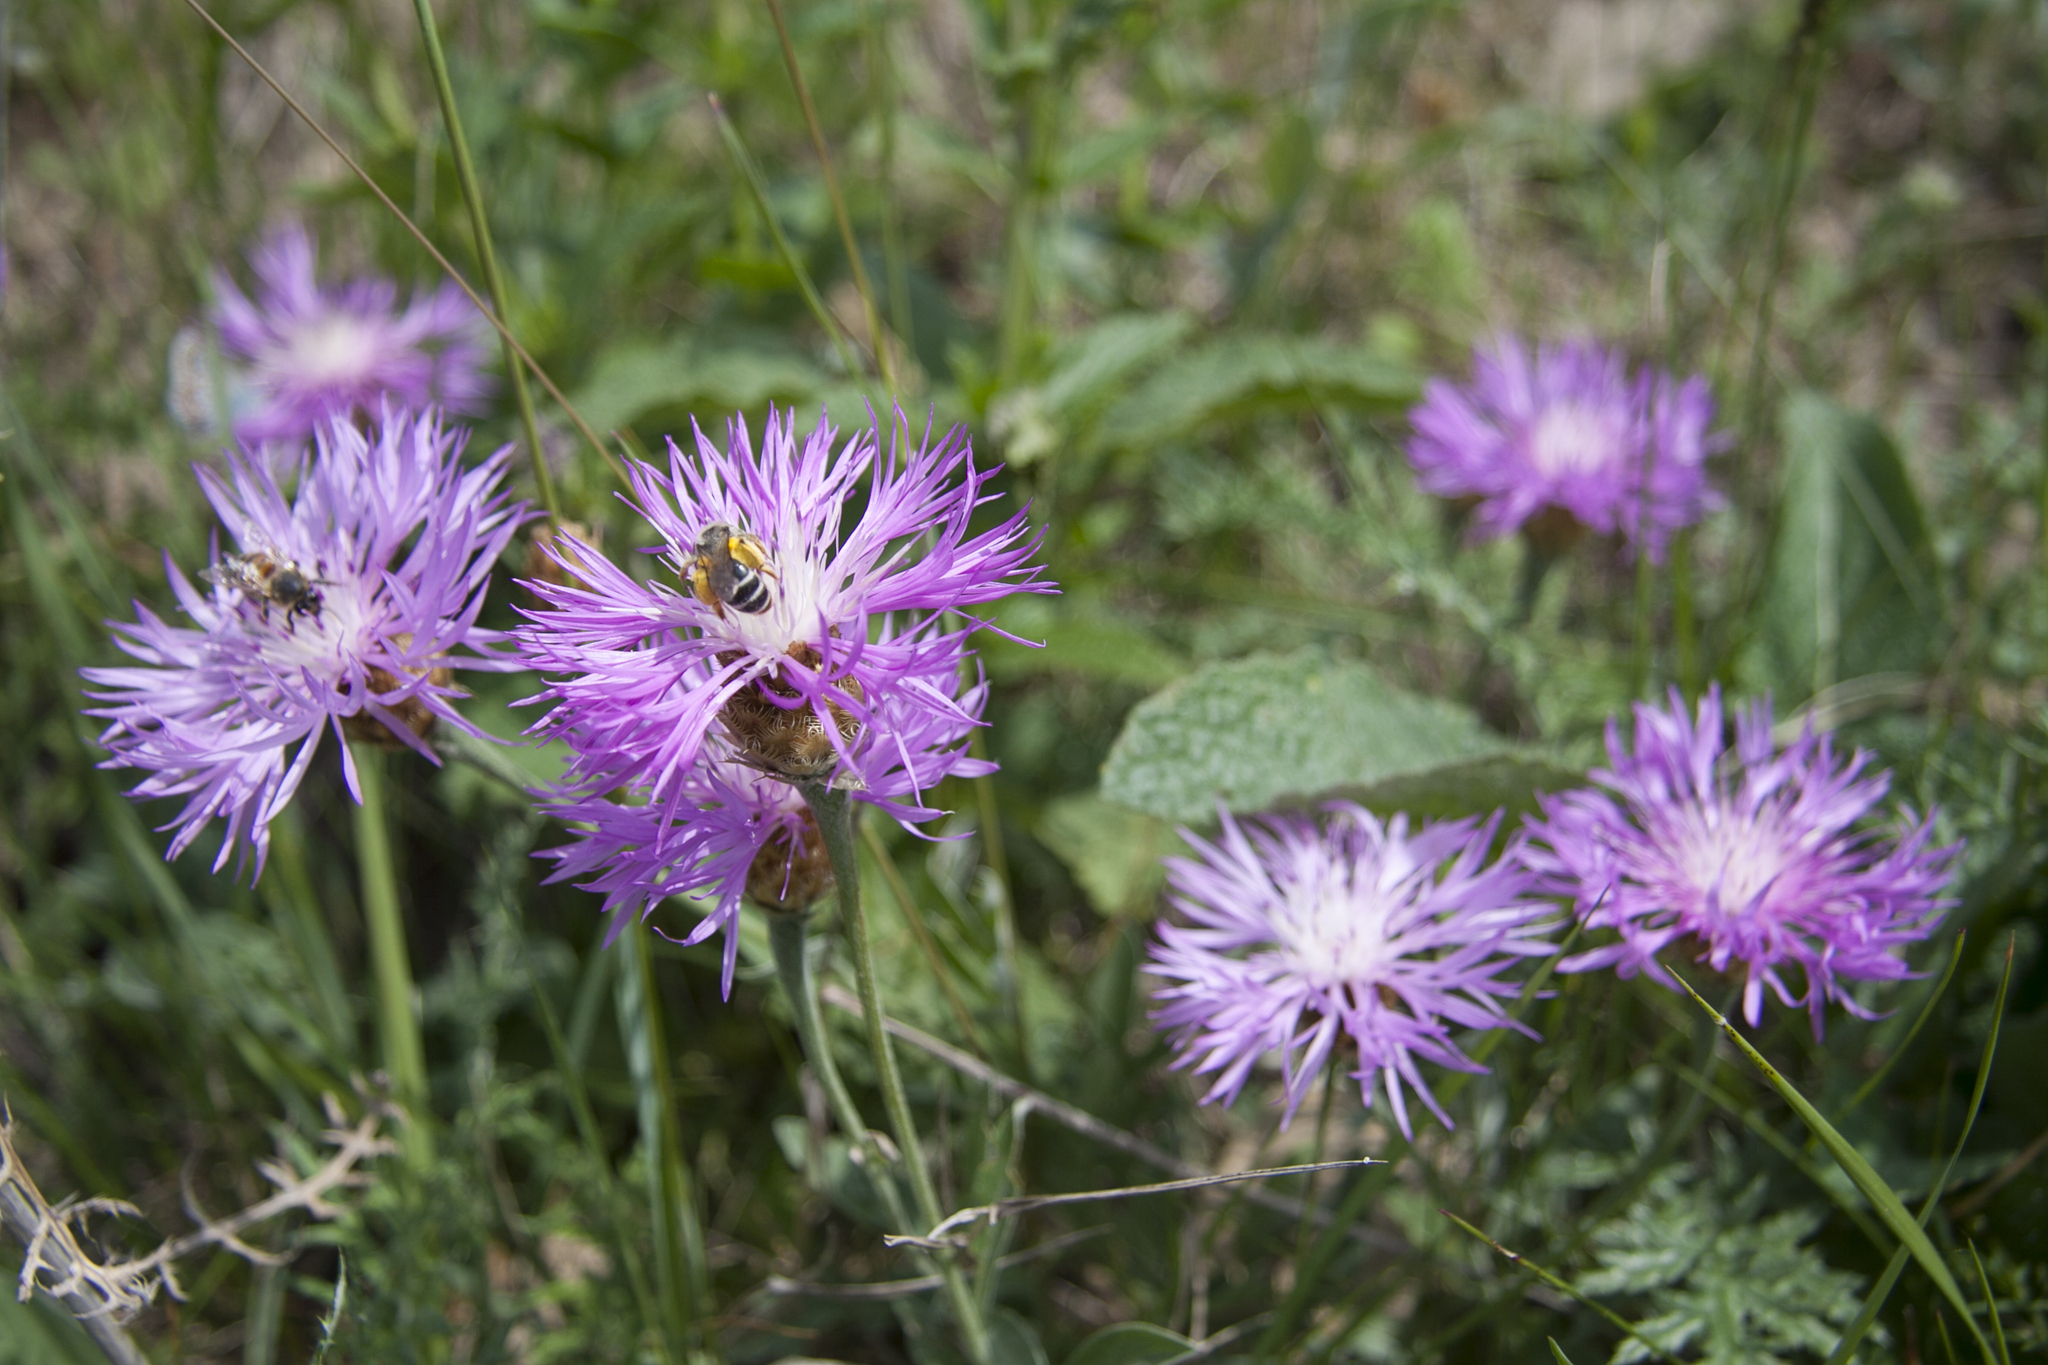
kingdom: Plantae
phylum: Tracheophyta
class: Magnoliopsida
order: Asterales
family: Asteraceae
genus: Psephellus
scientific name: Psephellus sibiricus
